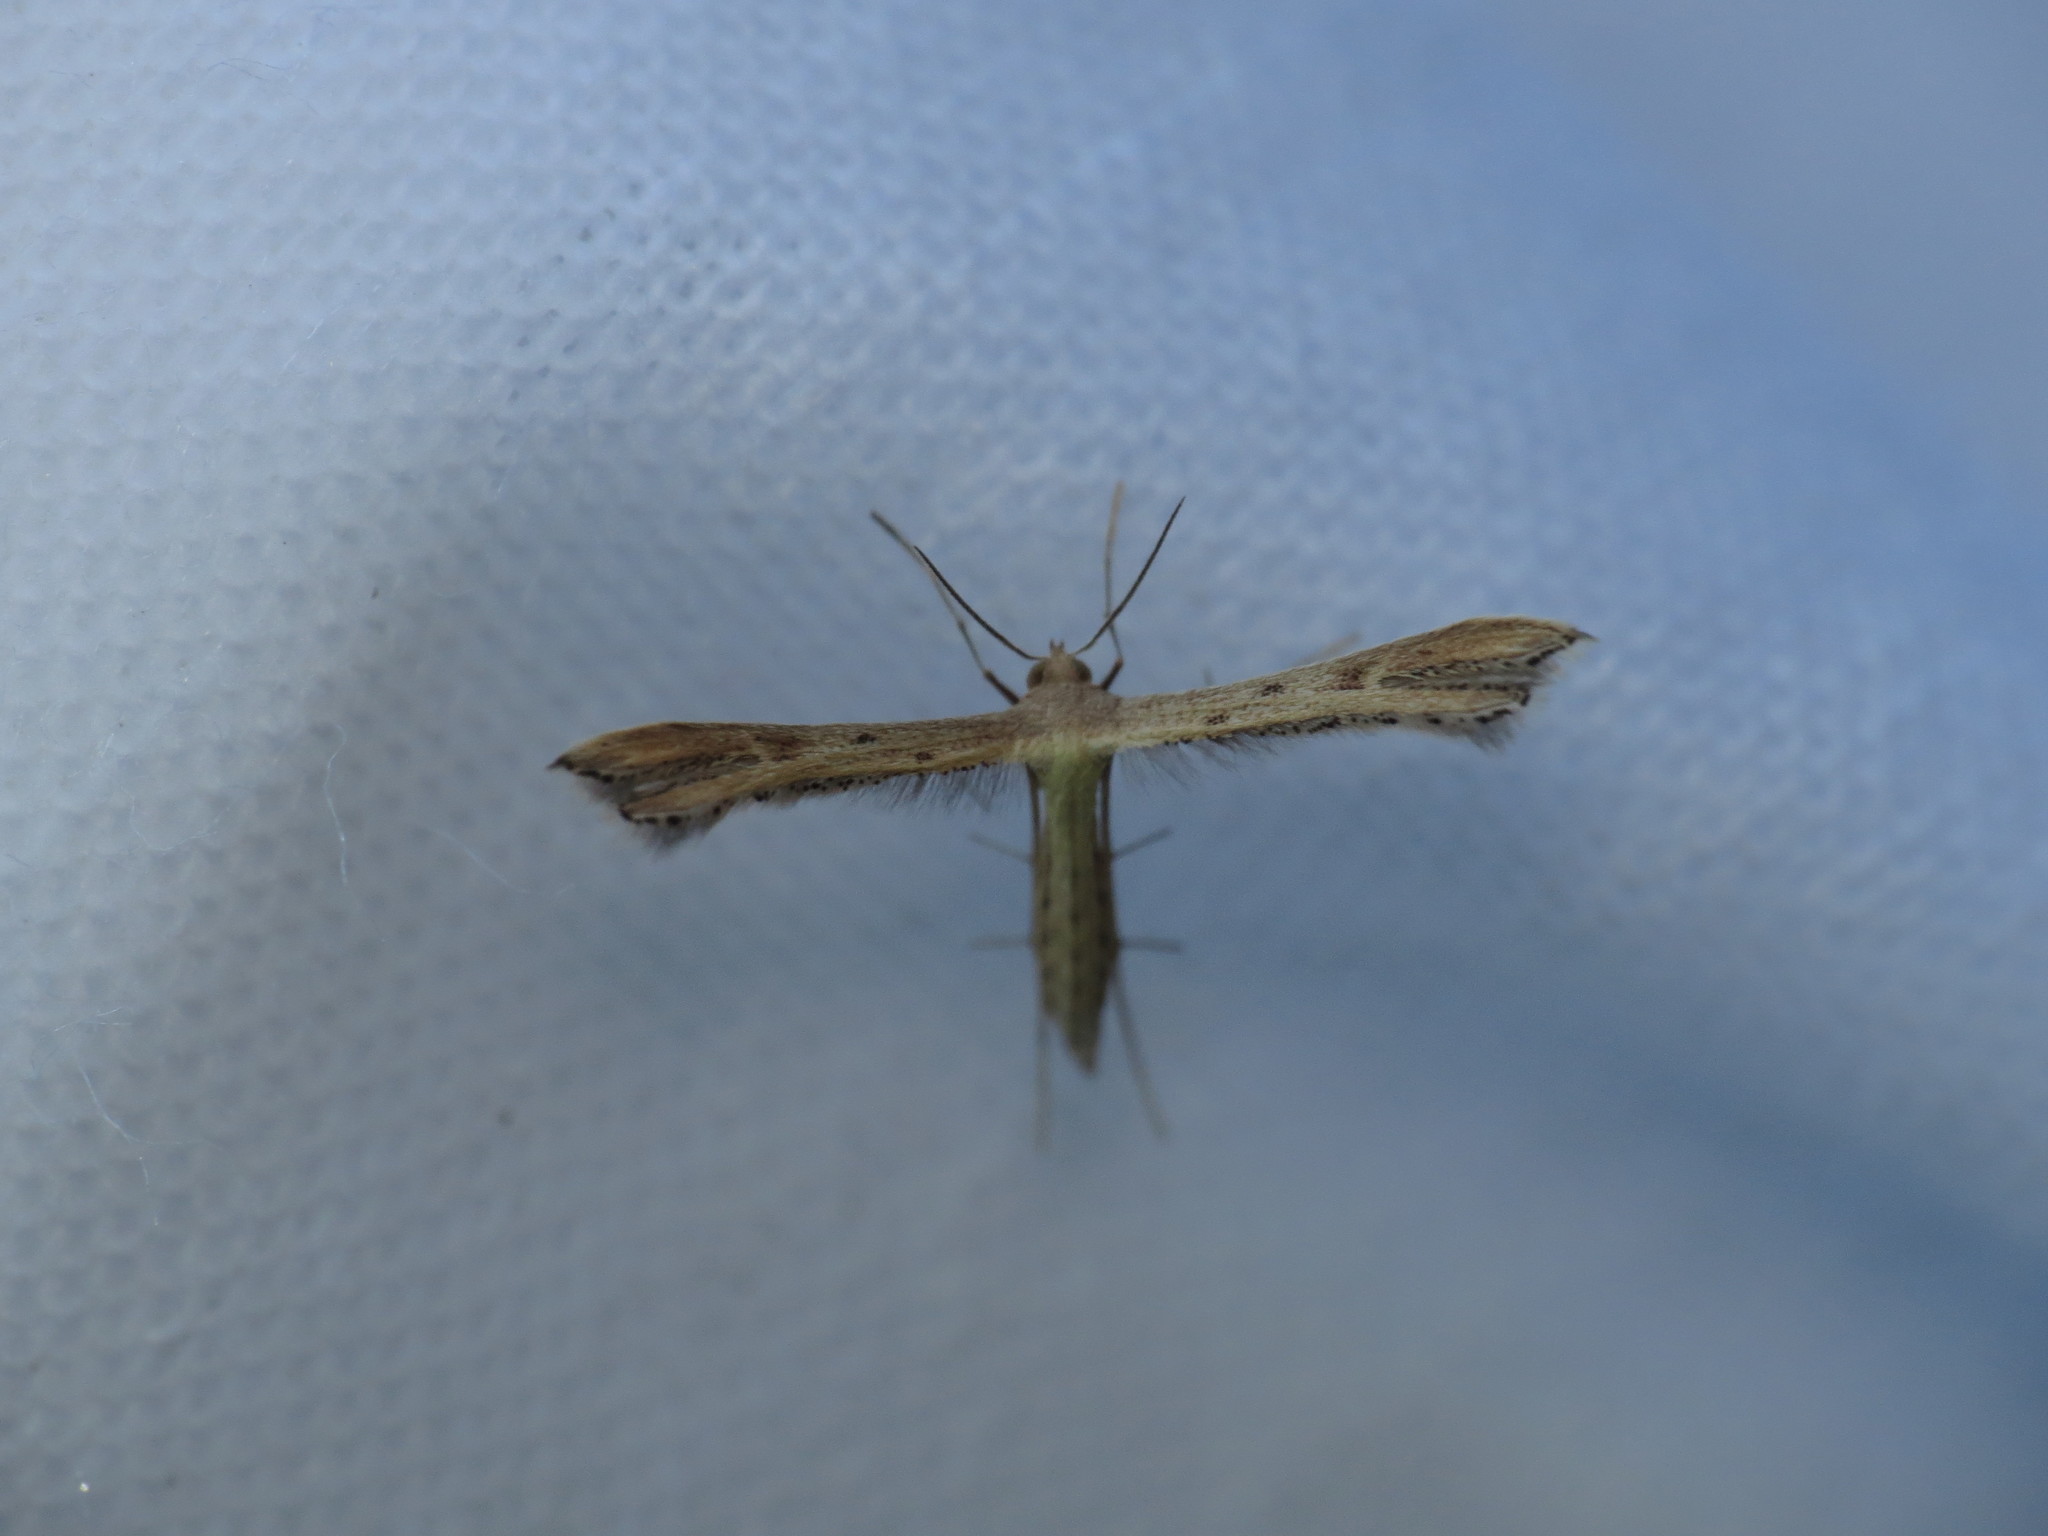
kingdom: Animalia
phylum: Arthropoda
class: Insecta
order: Lepidoptera
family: Pterophoridae
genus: Exelastis
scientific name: Exelastis pumilio
